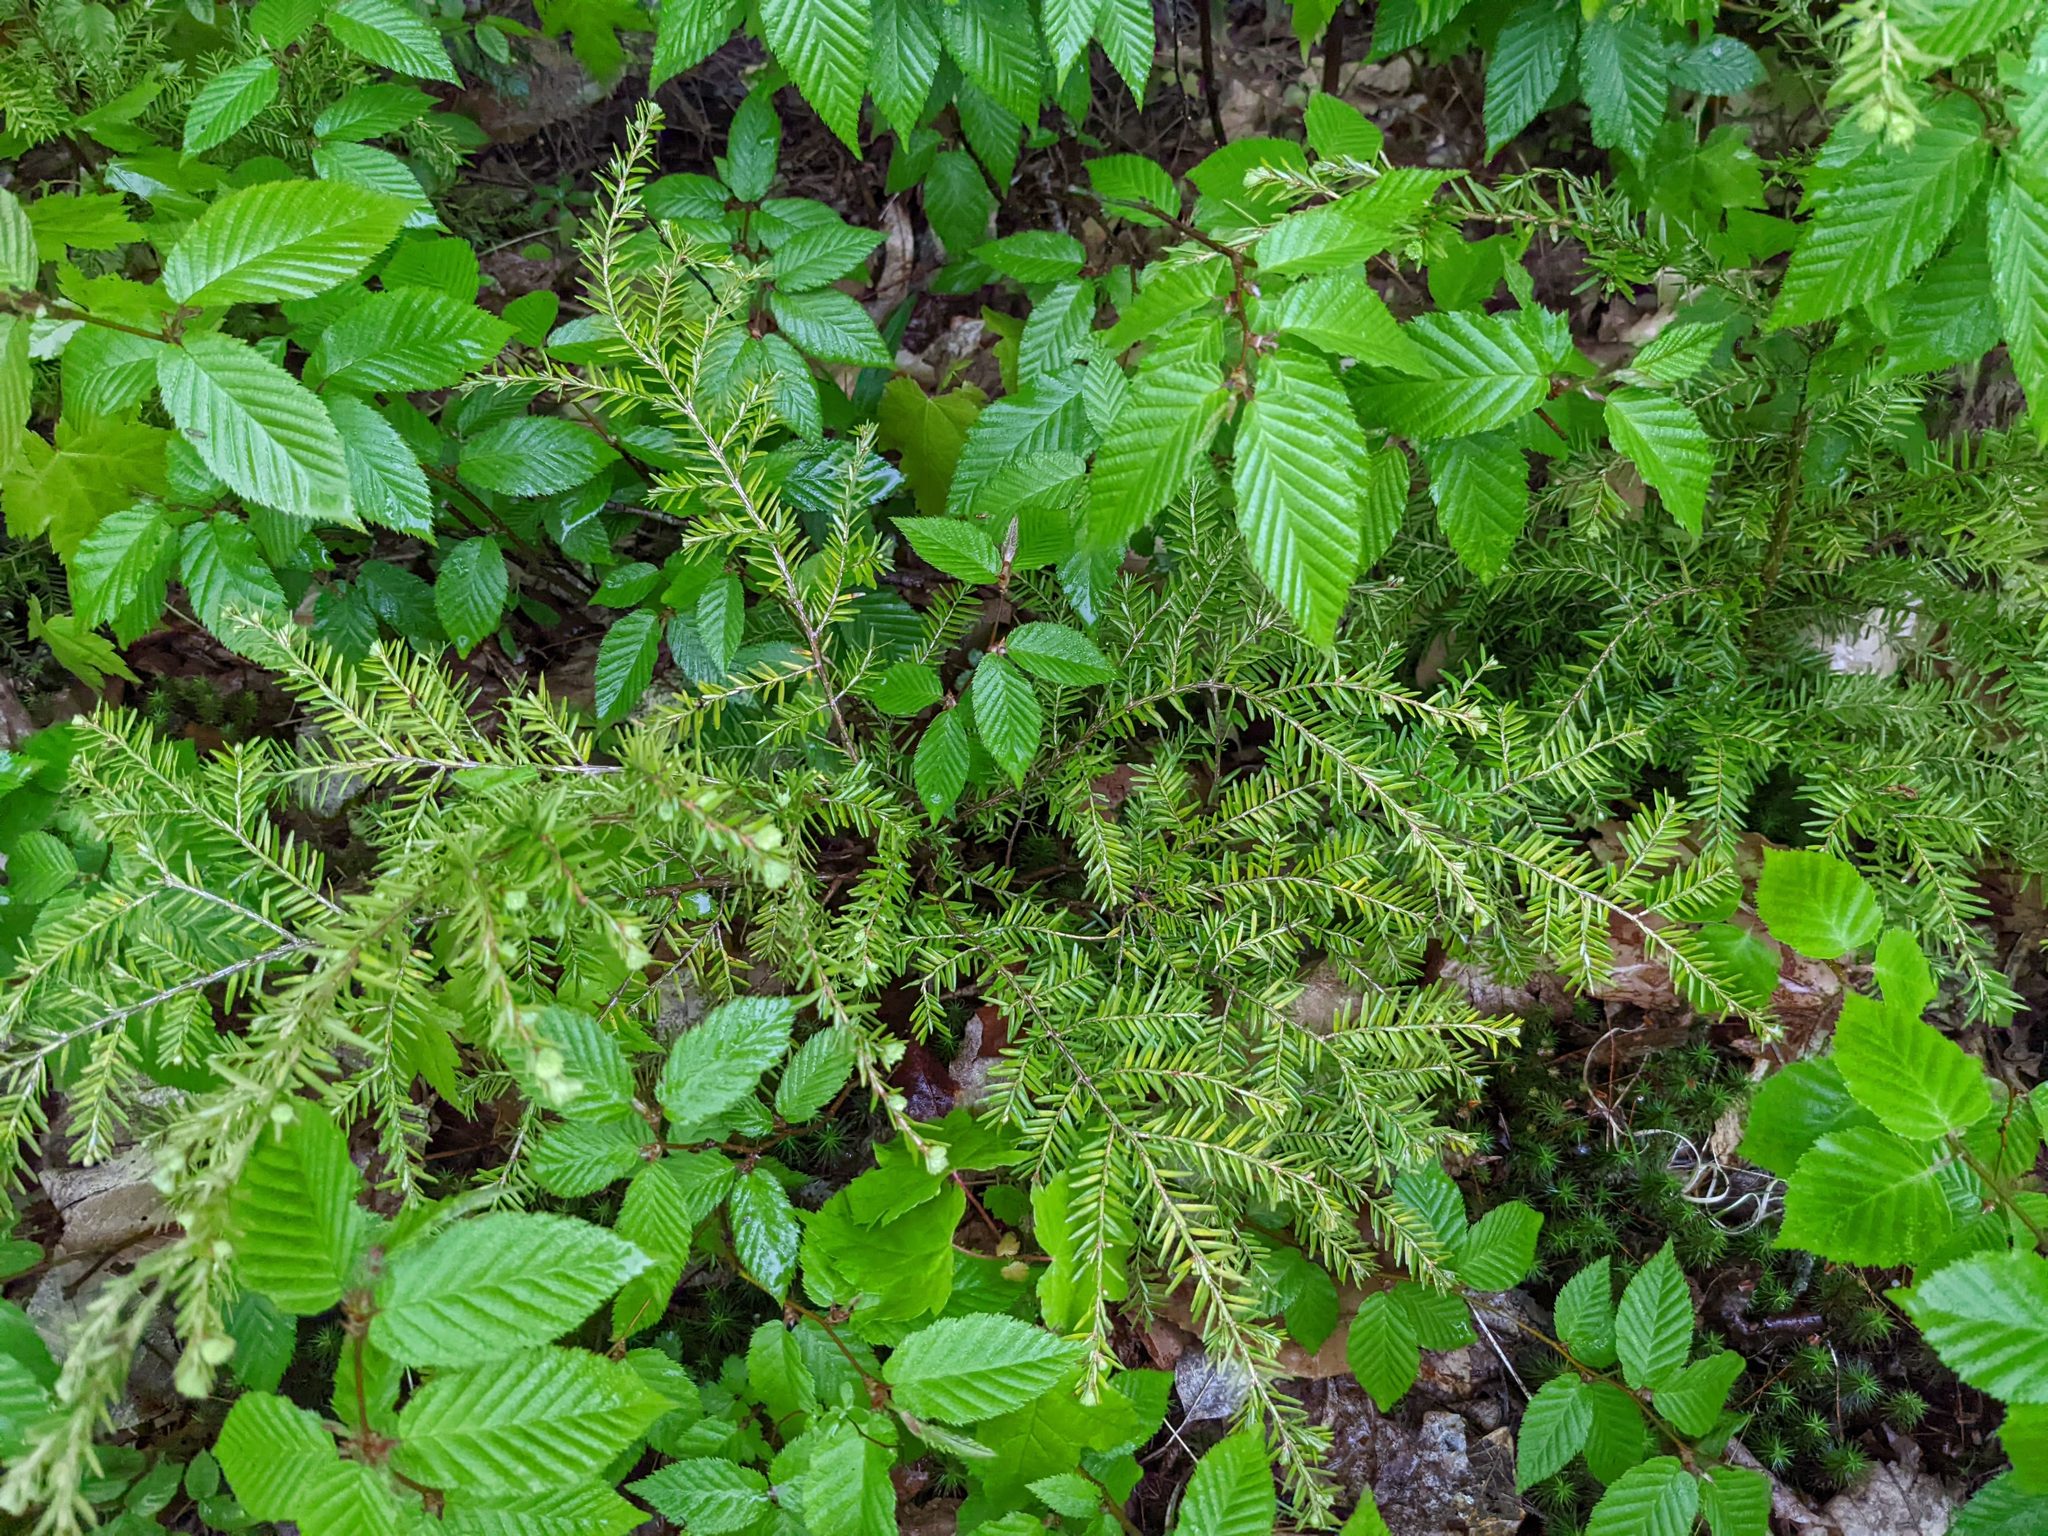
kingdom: Plantae
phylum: Tracheophyta
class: Pinopsida
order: Pinales
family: Pinaceae
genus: Tsuga
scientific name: Tsuga canadensis
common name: Eastern hemlock
